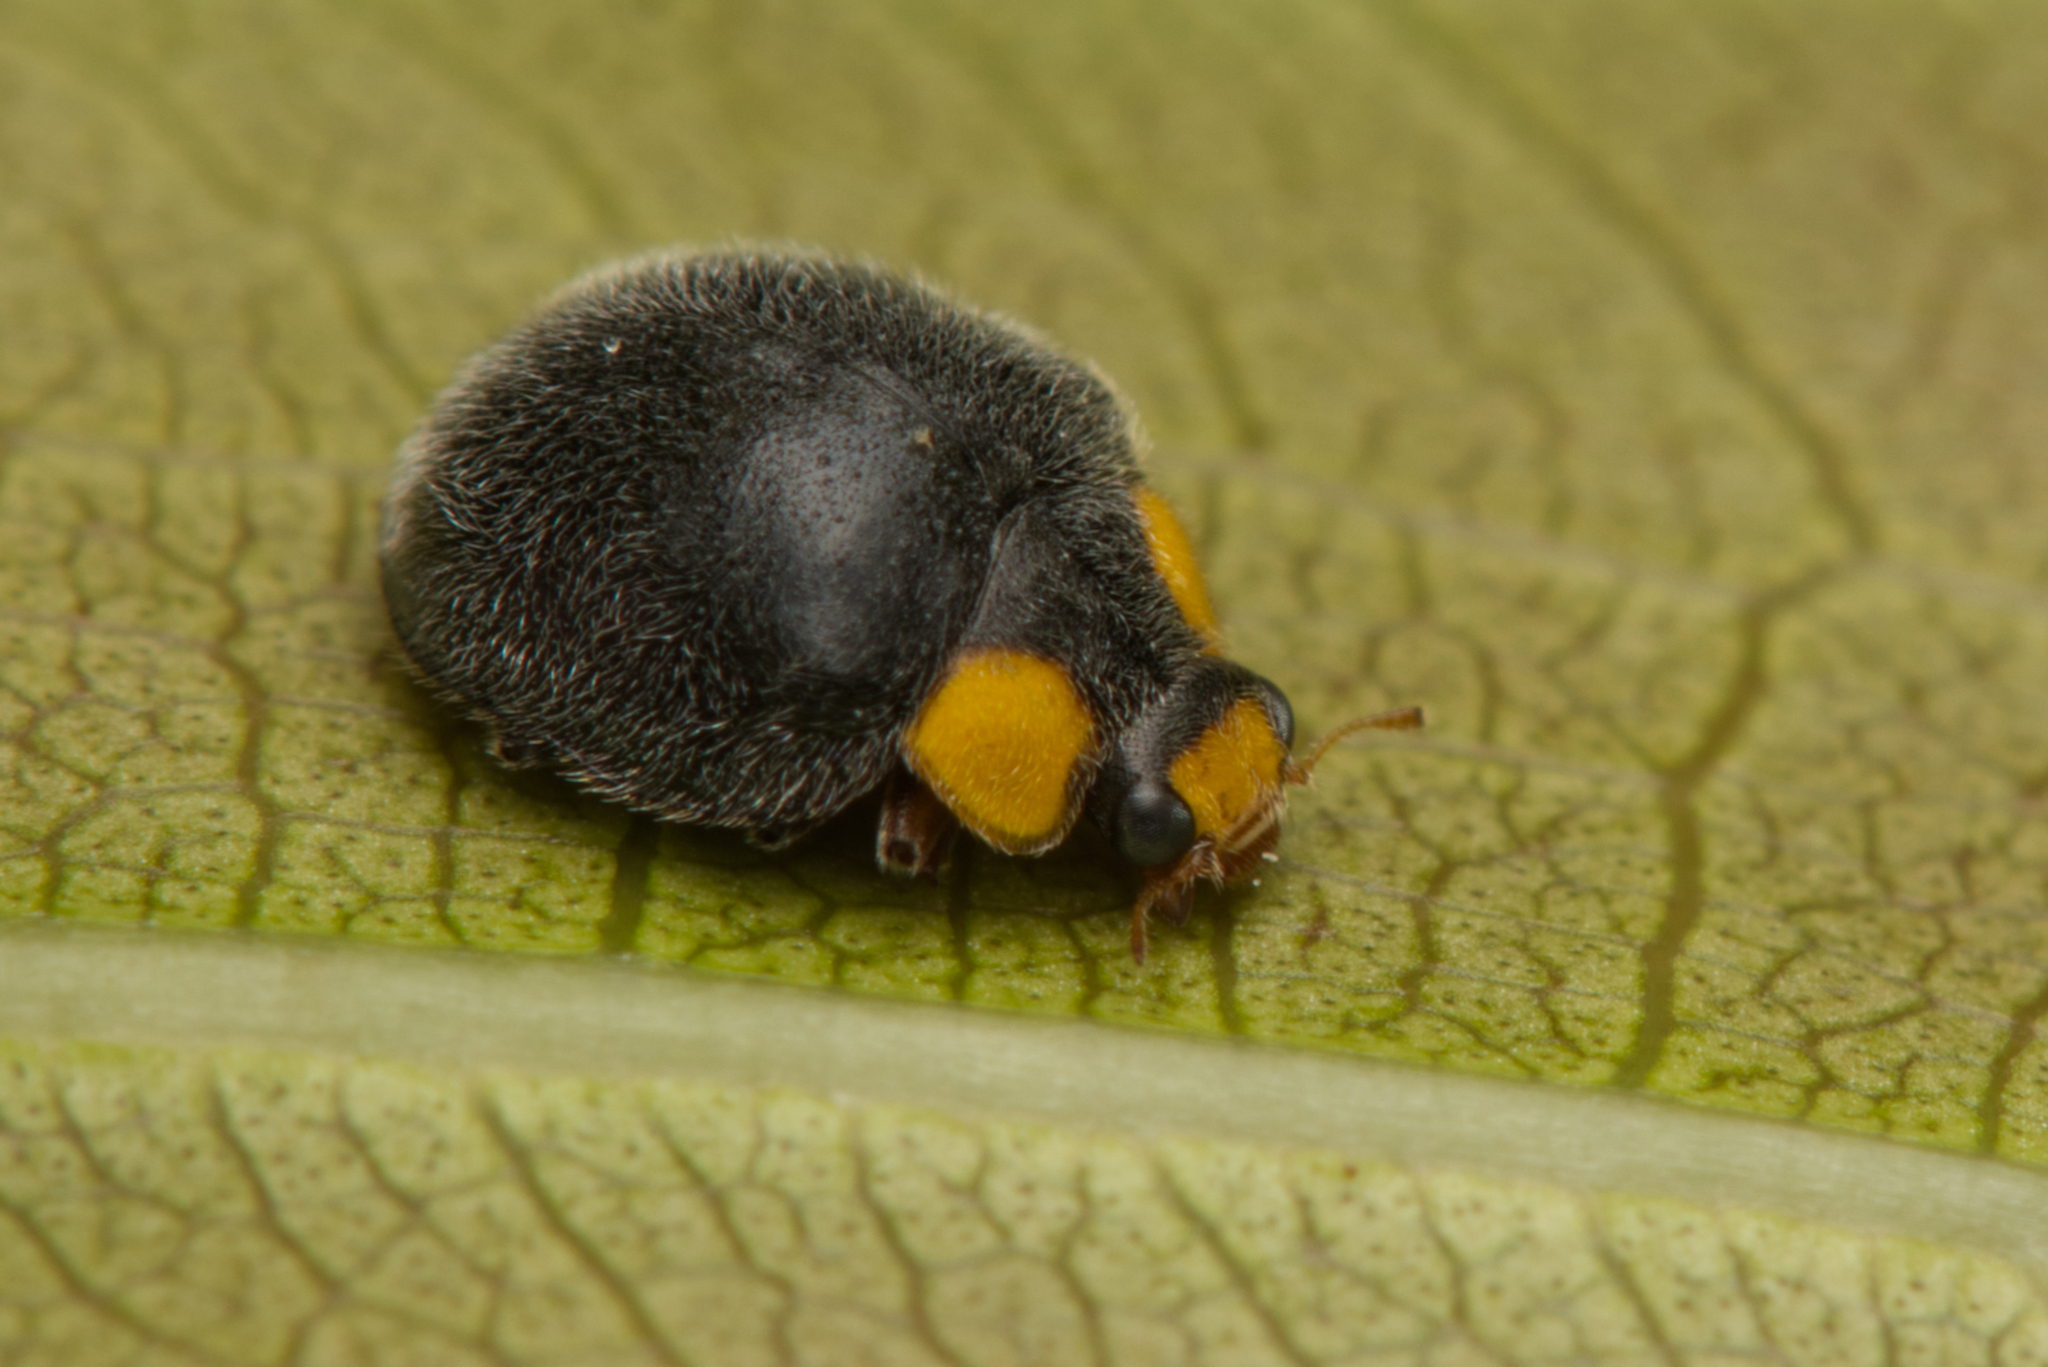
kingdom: Animalia
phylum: Arthropoda
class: Insecta
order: Coleoptera
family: Coccinellidae
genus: Scymnodes
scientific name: Scymnodes lividigaster
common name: Yellowshouldered lady beetle
